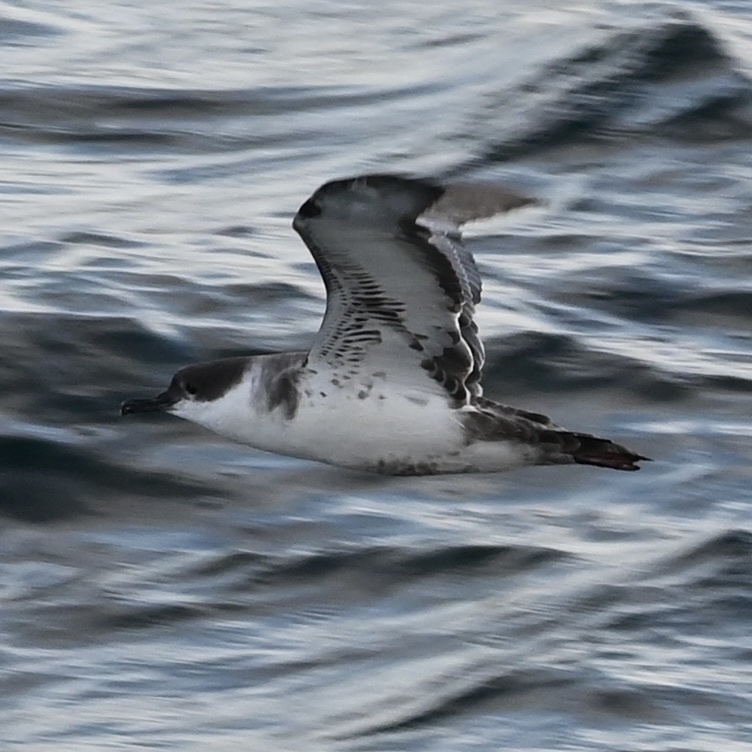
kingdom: Animalia
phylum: Chordata
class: Aves
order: Procellariiformes
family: Procellariidae
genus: Puffinus
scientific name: Puffinus gravis
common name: Great shearwater
